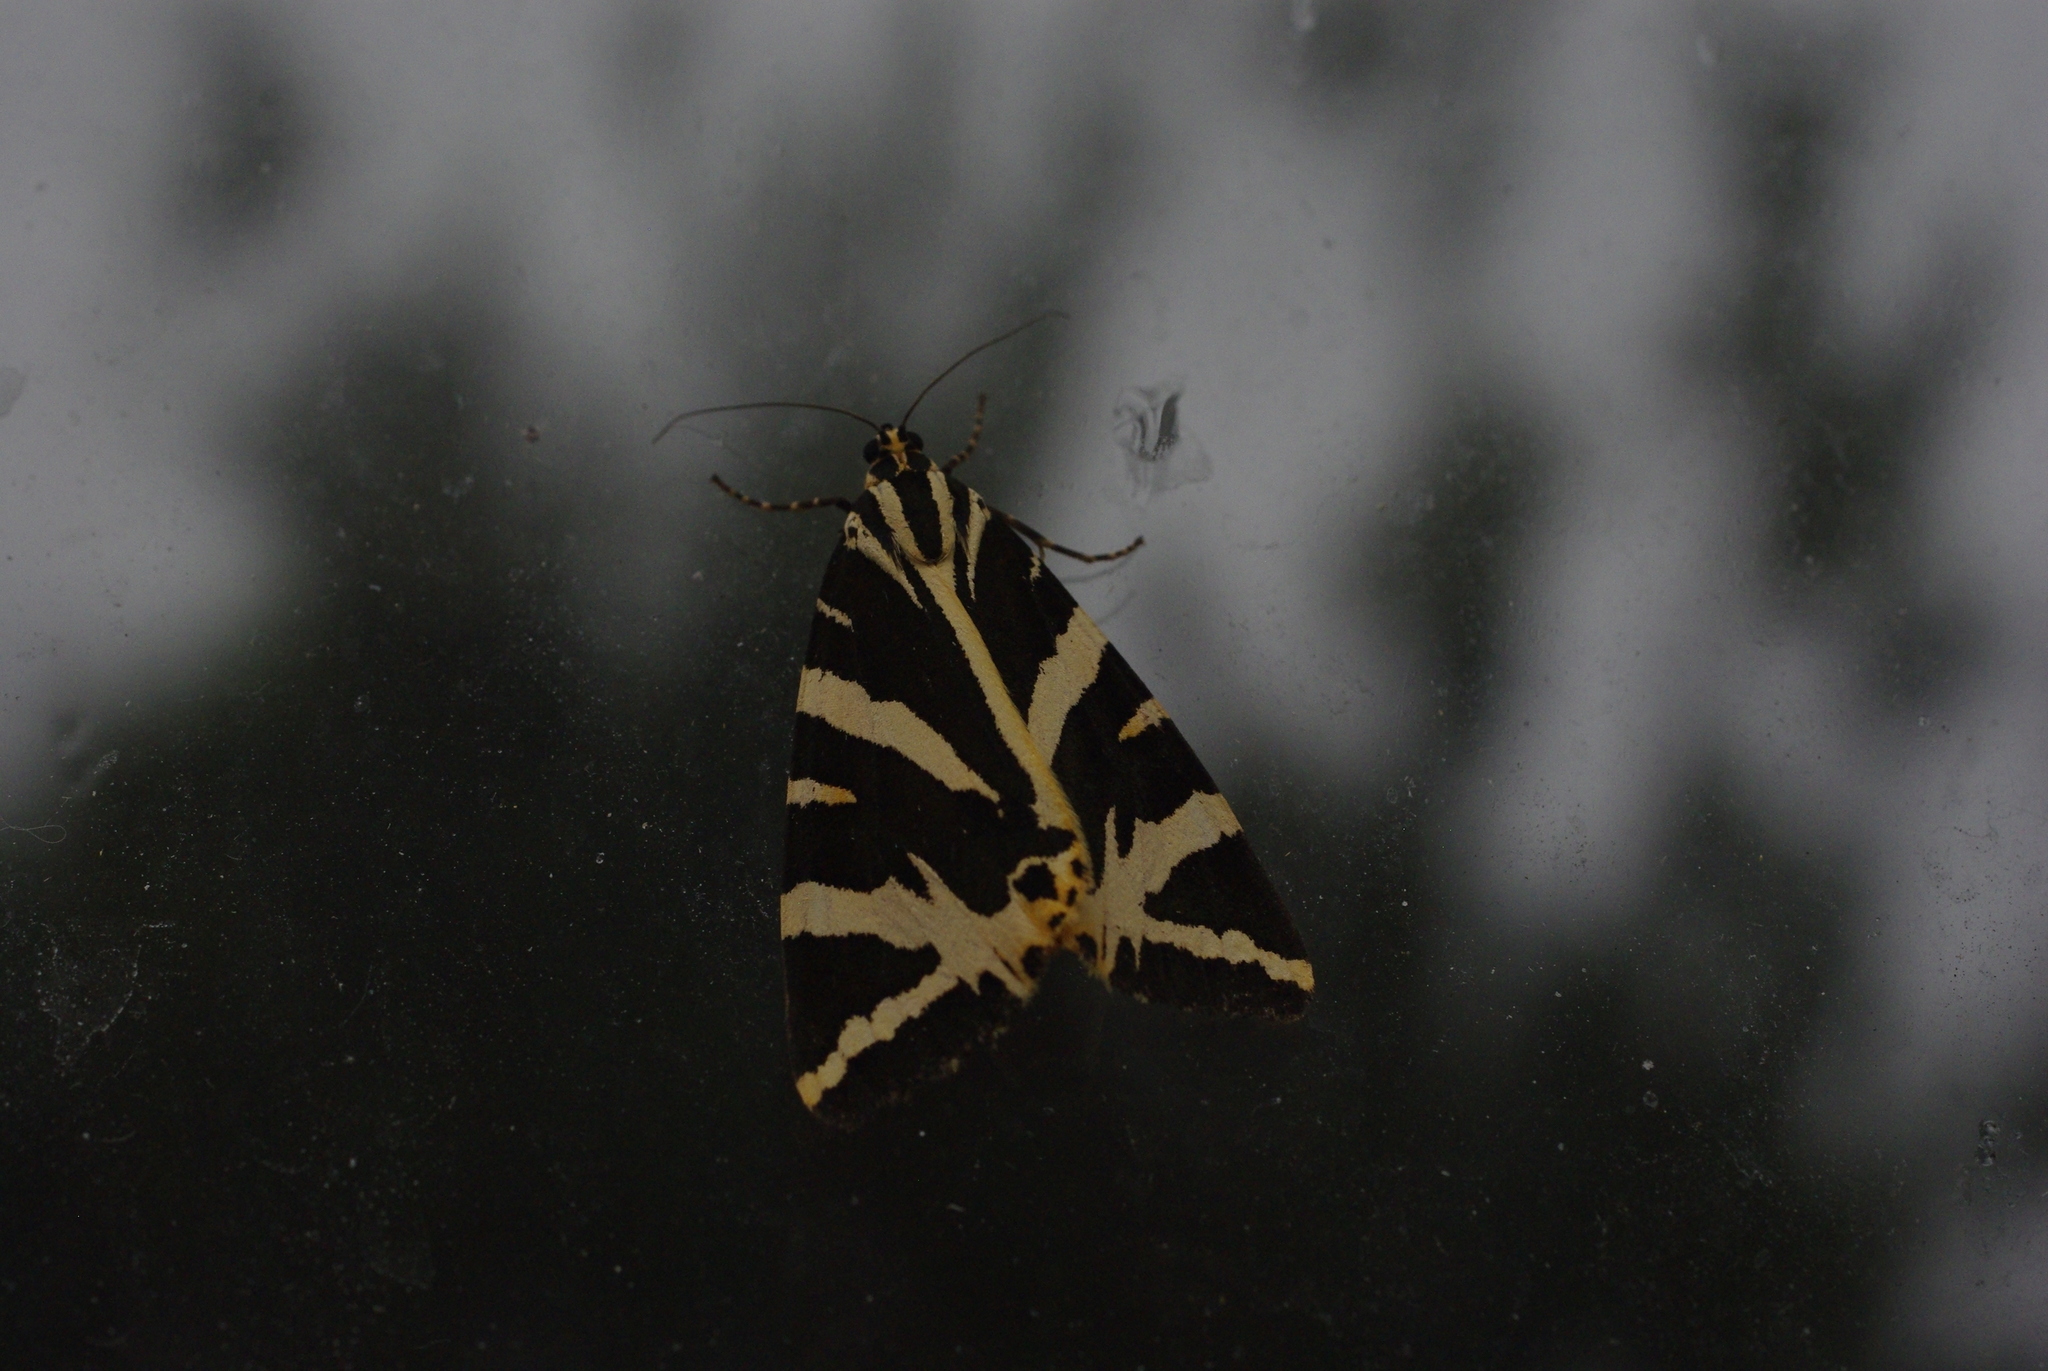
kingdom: Animalia
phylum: Arthropoda
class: Insecta
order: Lepidoptera
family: Erebidae
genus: Euplagia
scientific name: Euplagia quadripunctaria
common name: Jersey tiger
